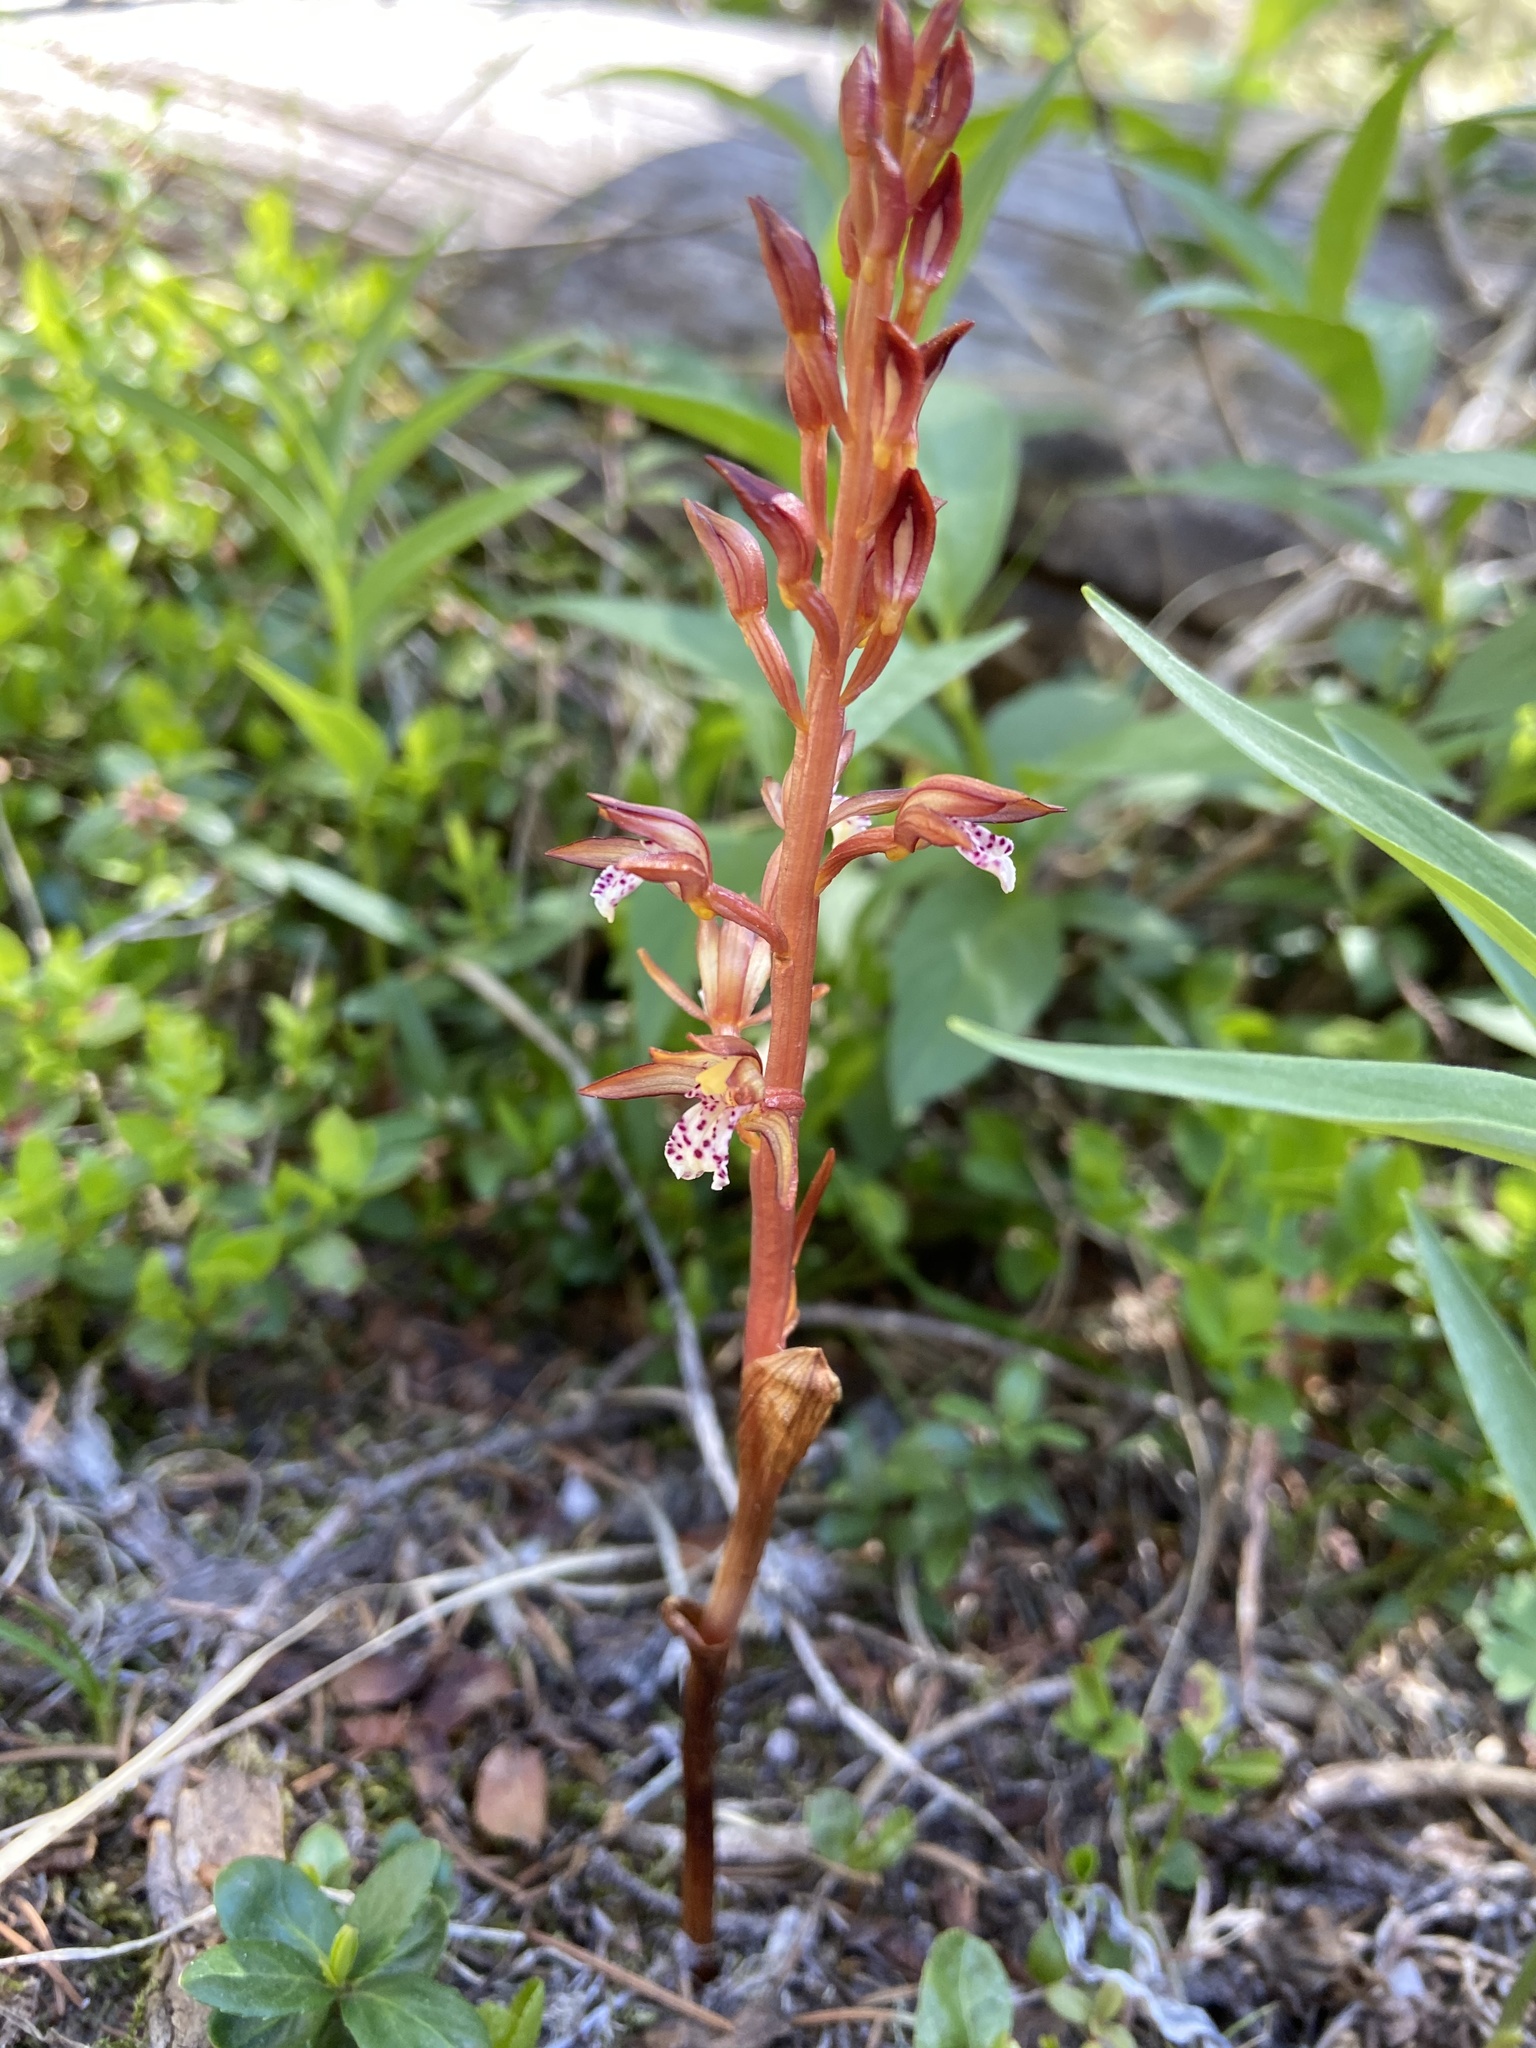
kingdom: Plantae
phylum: Tracheophyta
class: Liliopsida
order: Asparagales
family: Orchidaceae
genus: Corallorhiza
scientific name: Corallorhiza maculata
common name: Spotted coralroot
